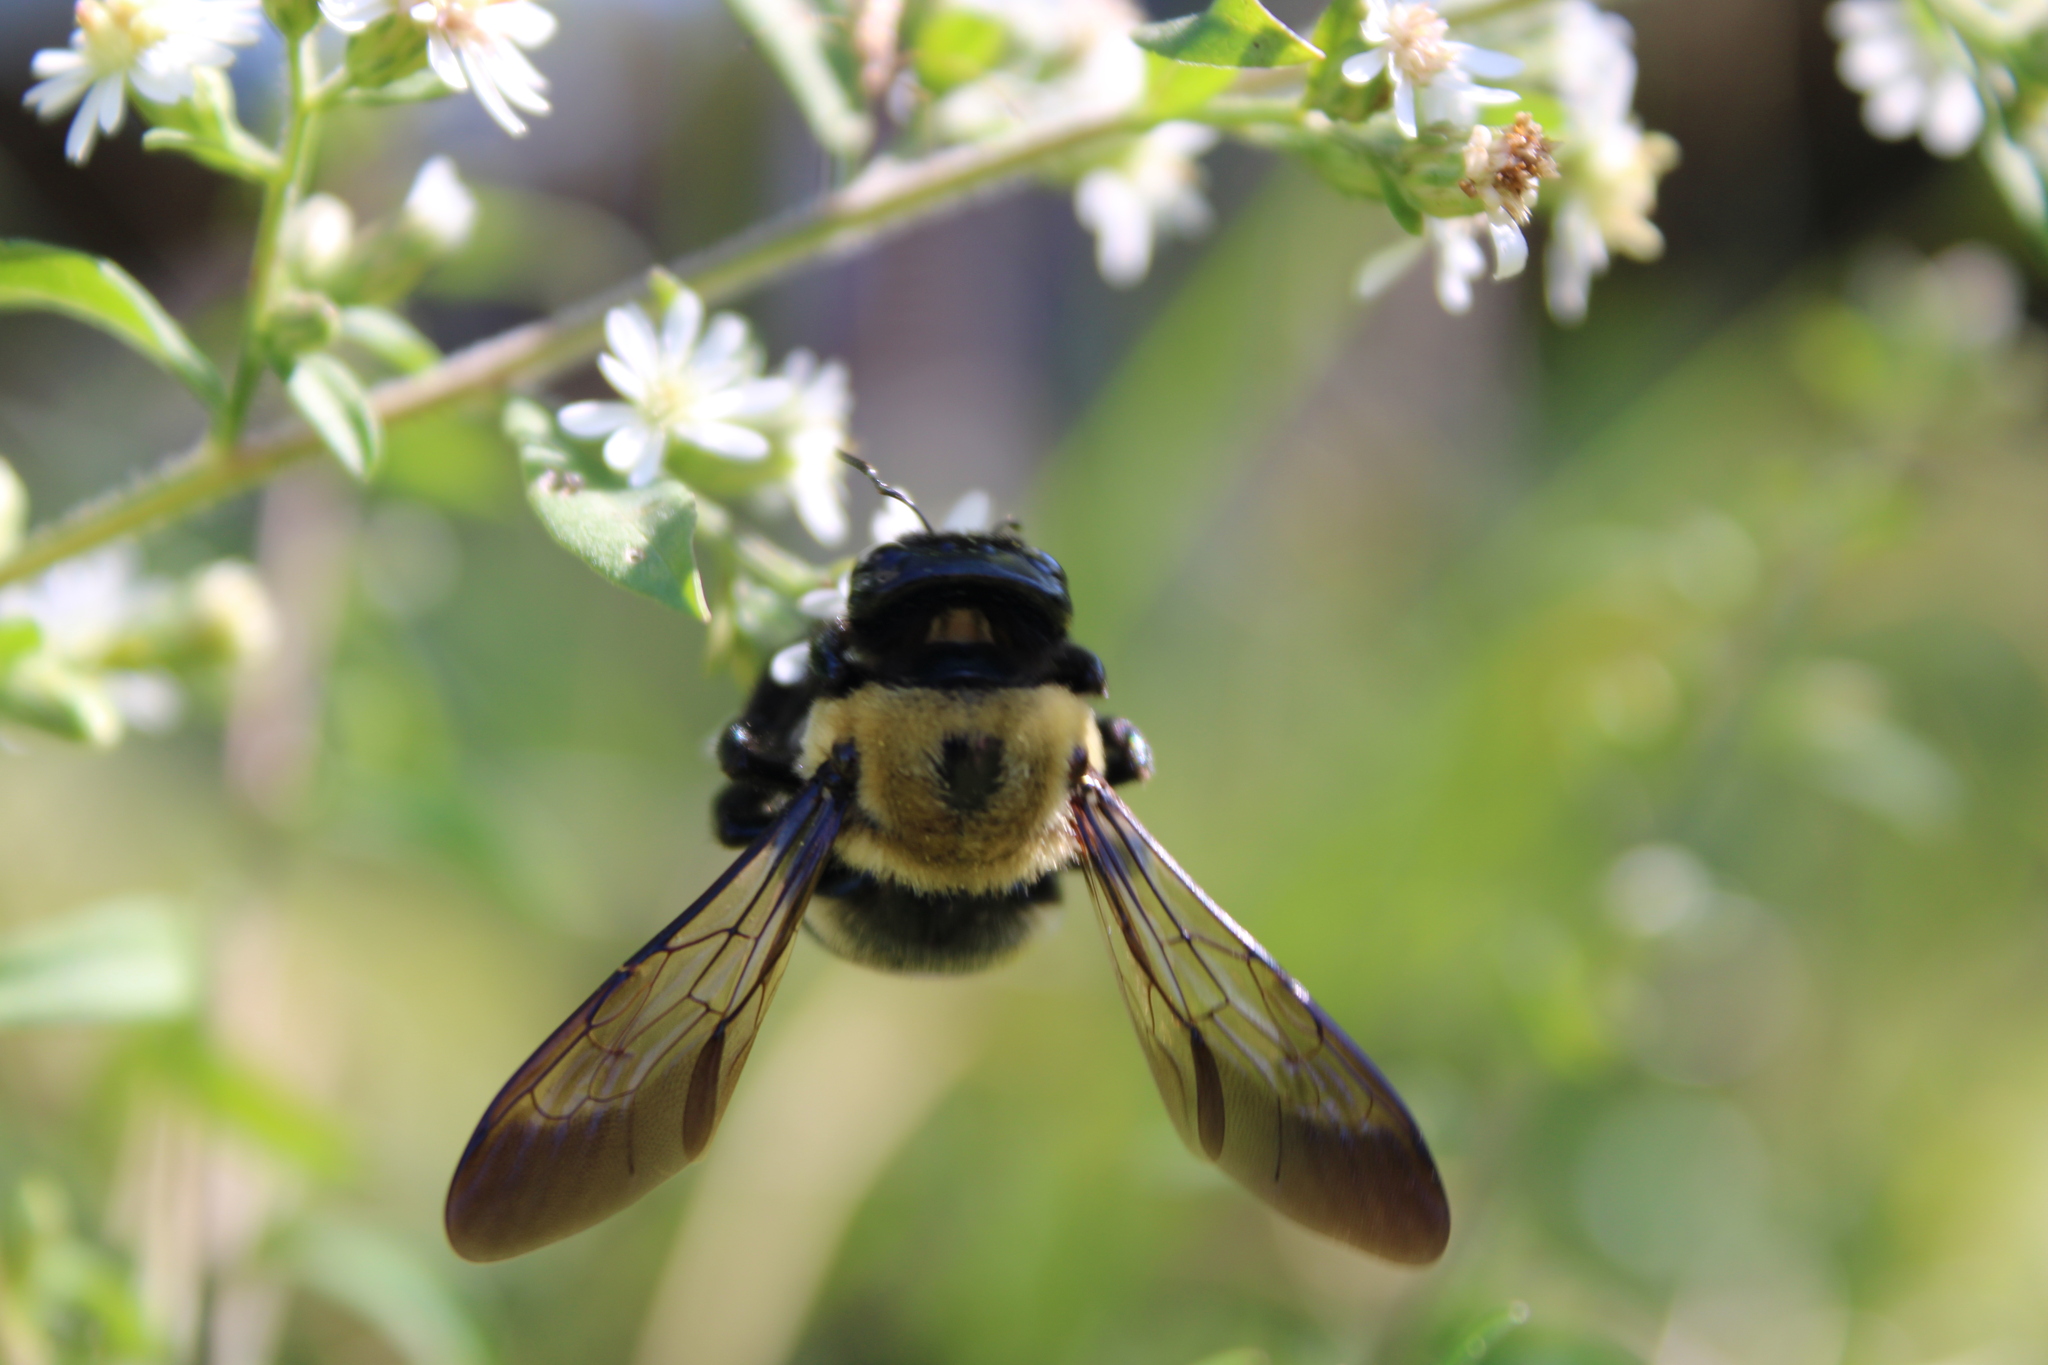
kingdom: Animalia
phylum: Arthropoda
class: Insecta
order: Hymenoptera
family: Apidae
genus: Xylocopa
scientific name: Xylocopa virginica
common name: Carpenter bee
